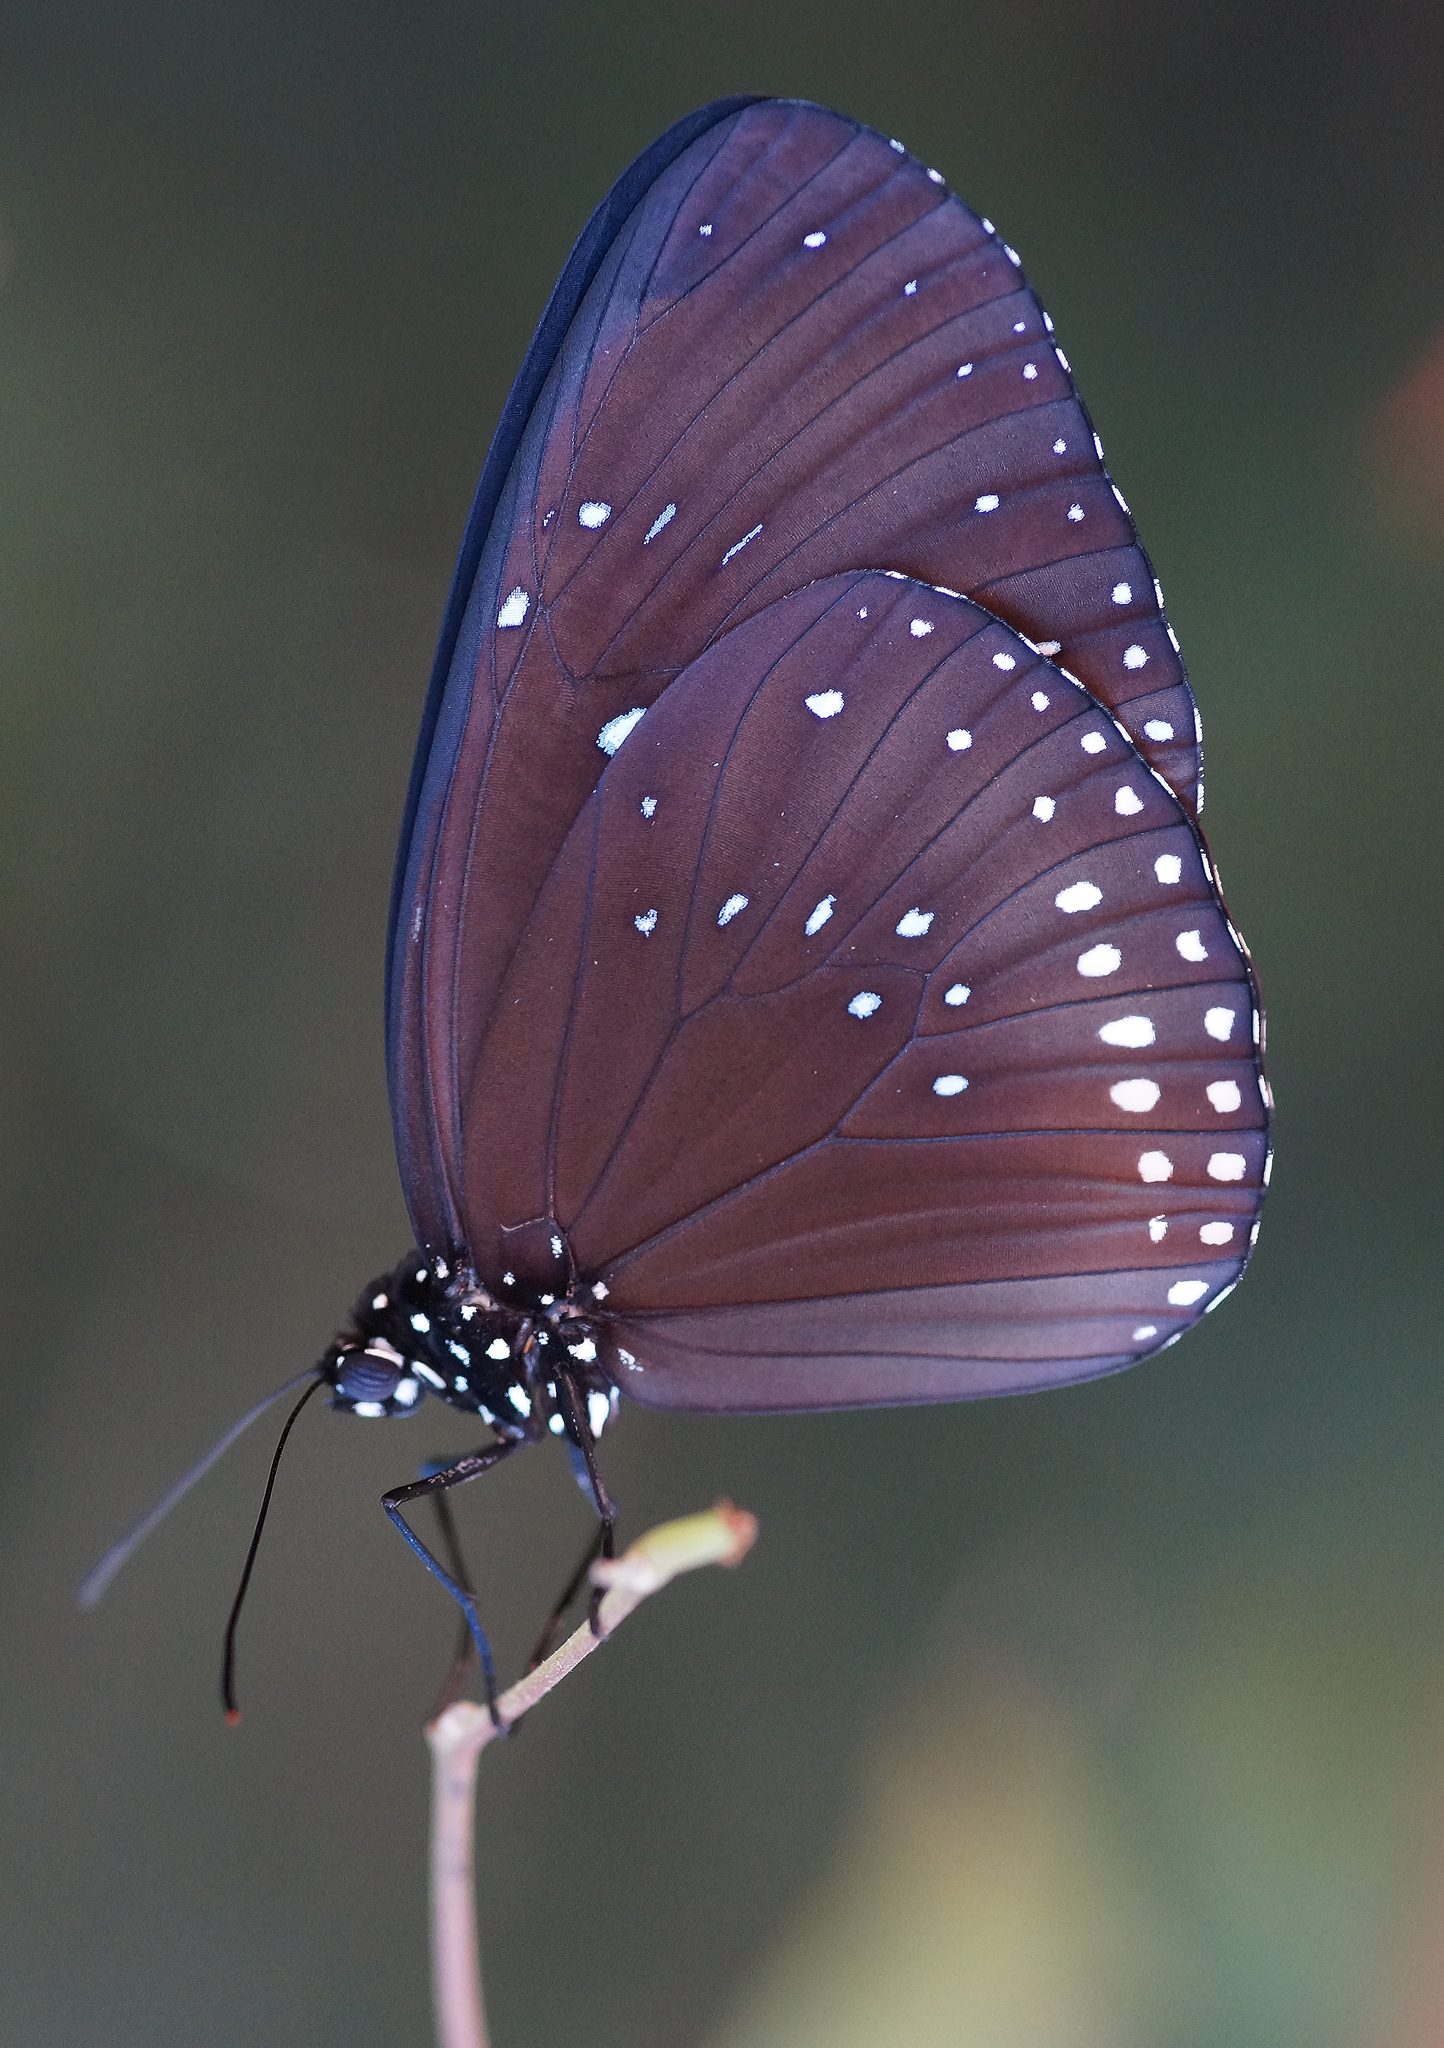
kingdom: Animalia
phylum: Arthropoda
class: Insecta
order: Lepidoptera
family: Nymphalidae
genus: Euploea
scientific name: Euploea sylvester
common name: Double-branded crow butterfly
